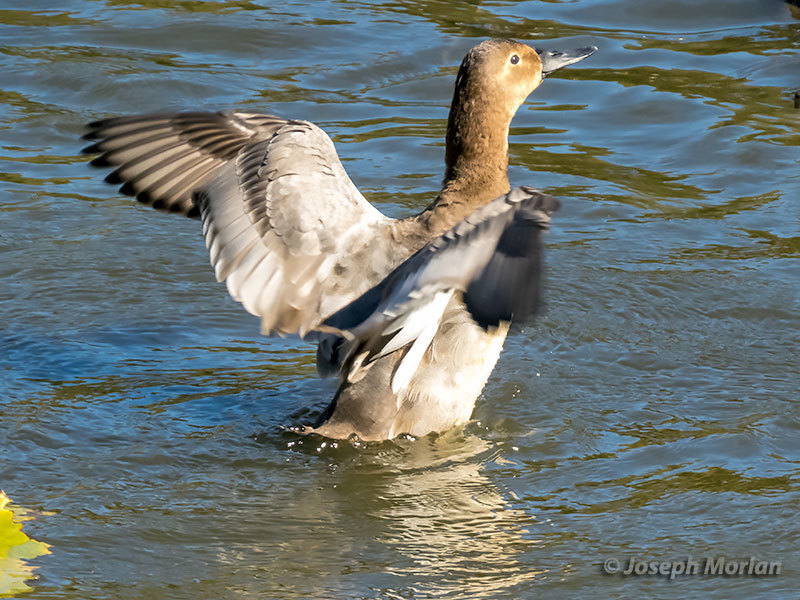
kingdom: Animalia
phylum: Chordata
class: Aves
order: Anseriformes
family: Anatidae
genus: Aythya
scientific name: Aythya valisineria
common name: Canvasback
